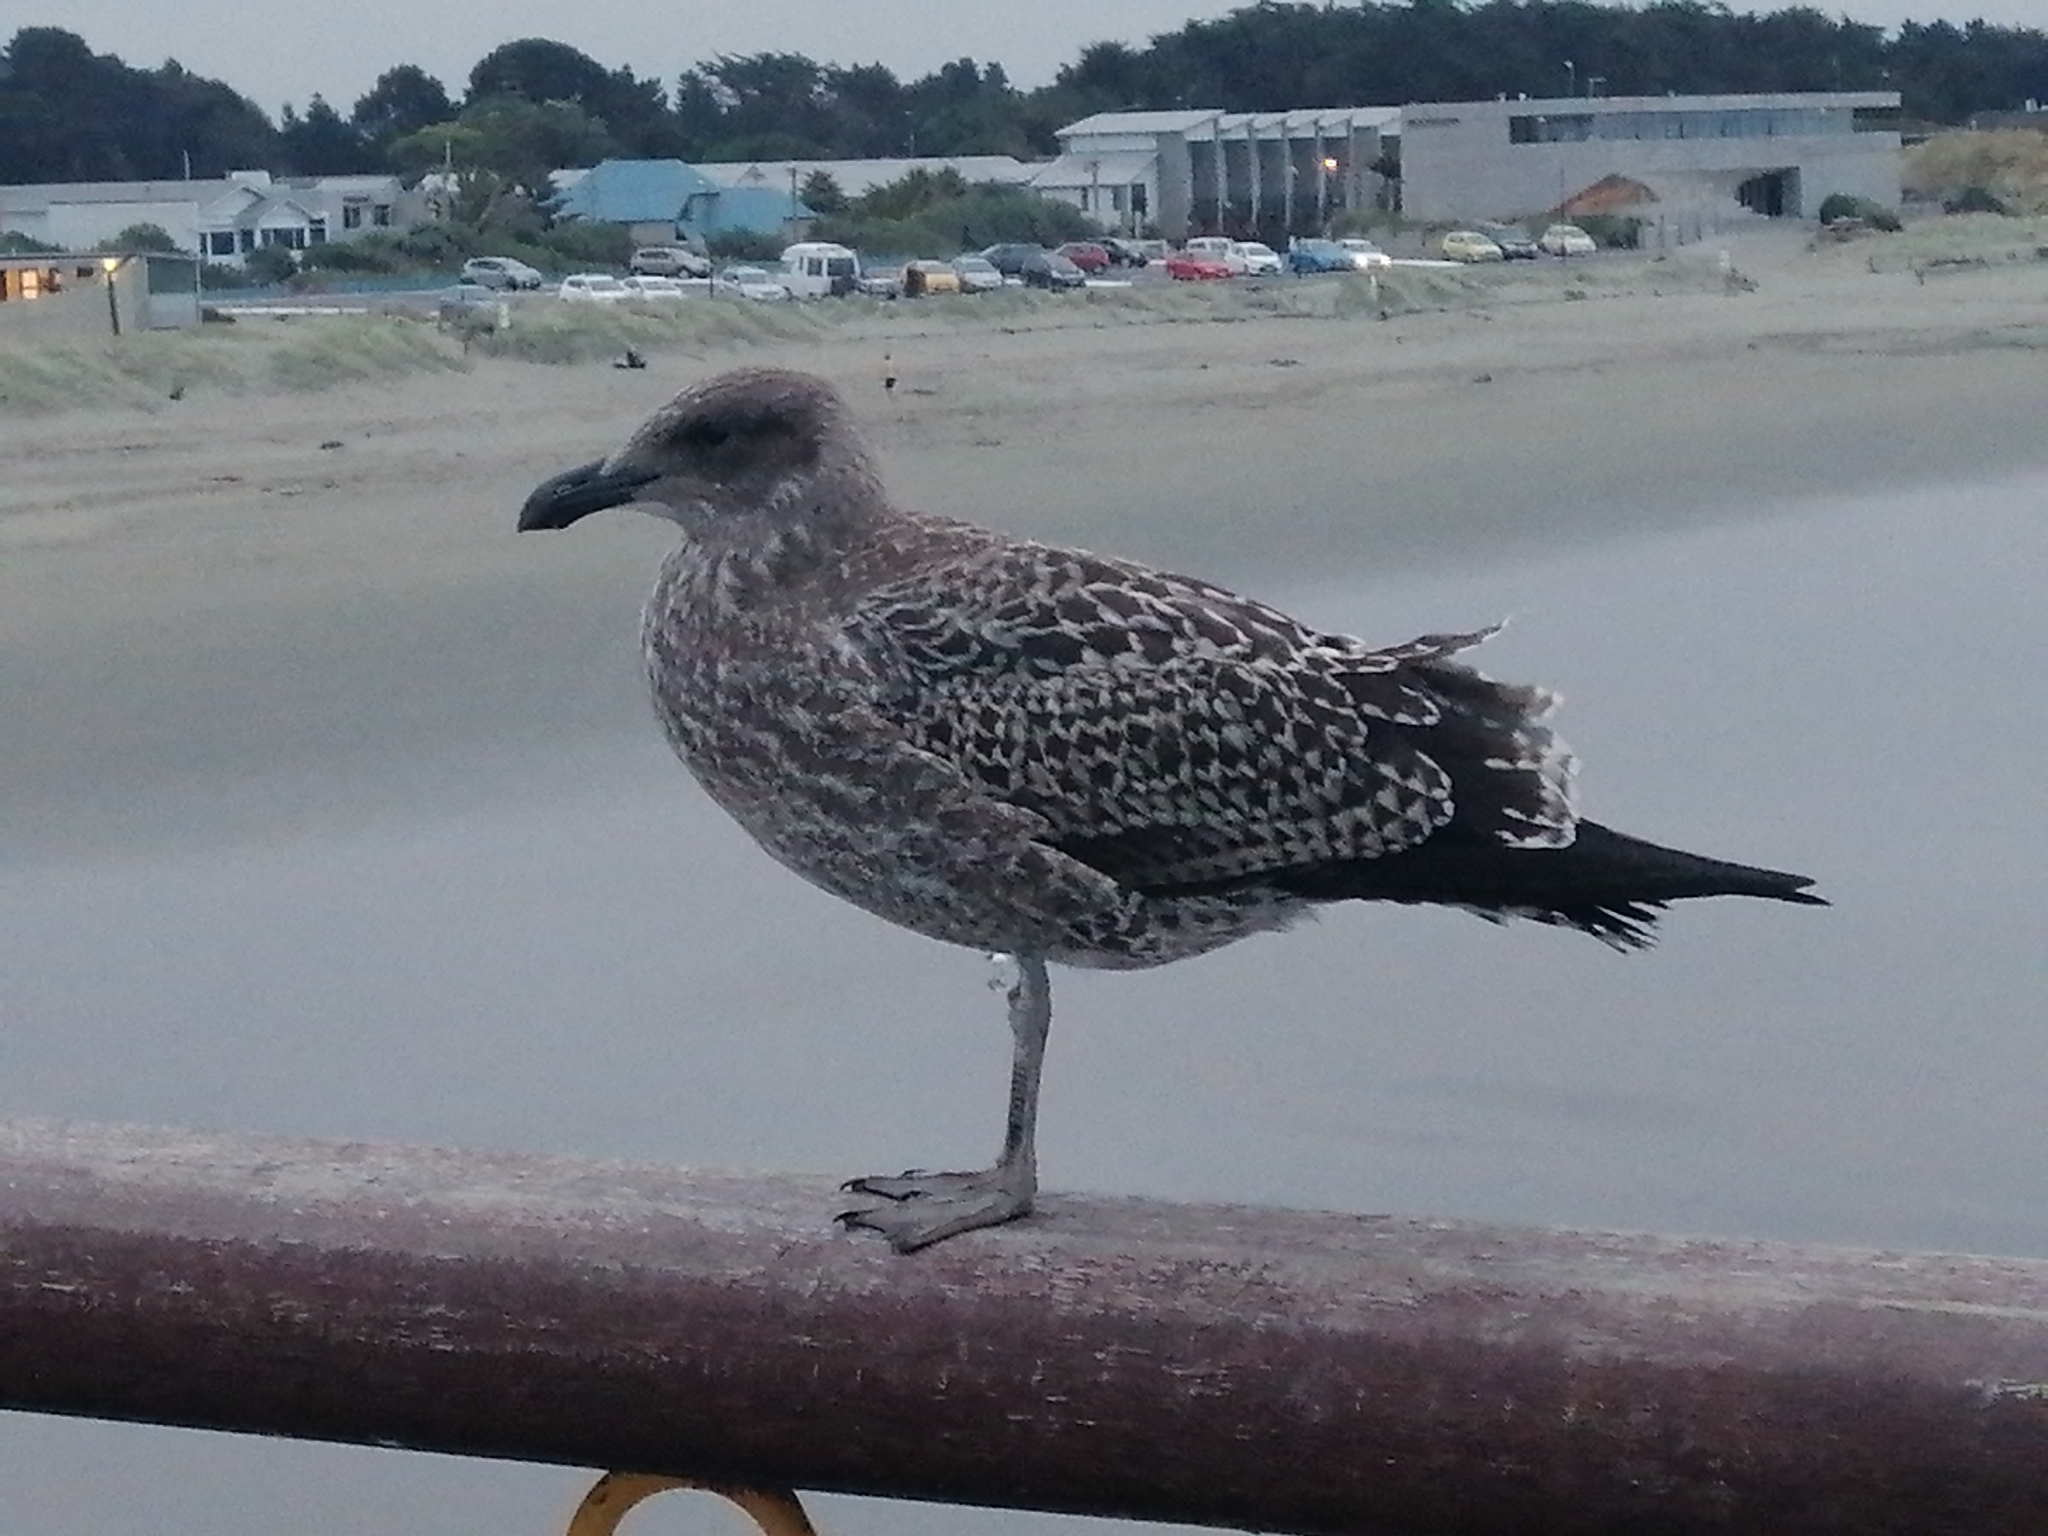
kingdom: Animalia
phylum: Chordata
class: Aves
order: Charadriiformes
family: Laridae
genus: Larus
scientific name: Larus dominicanus
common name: Kelp gull
